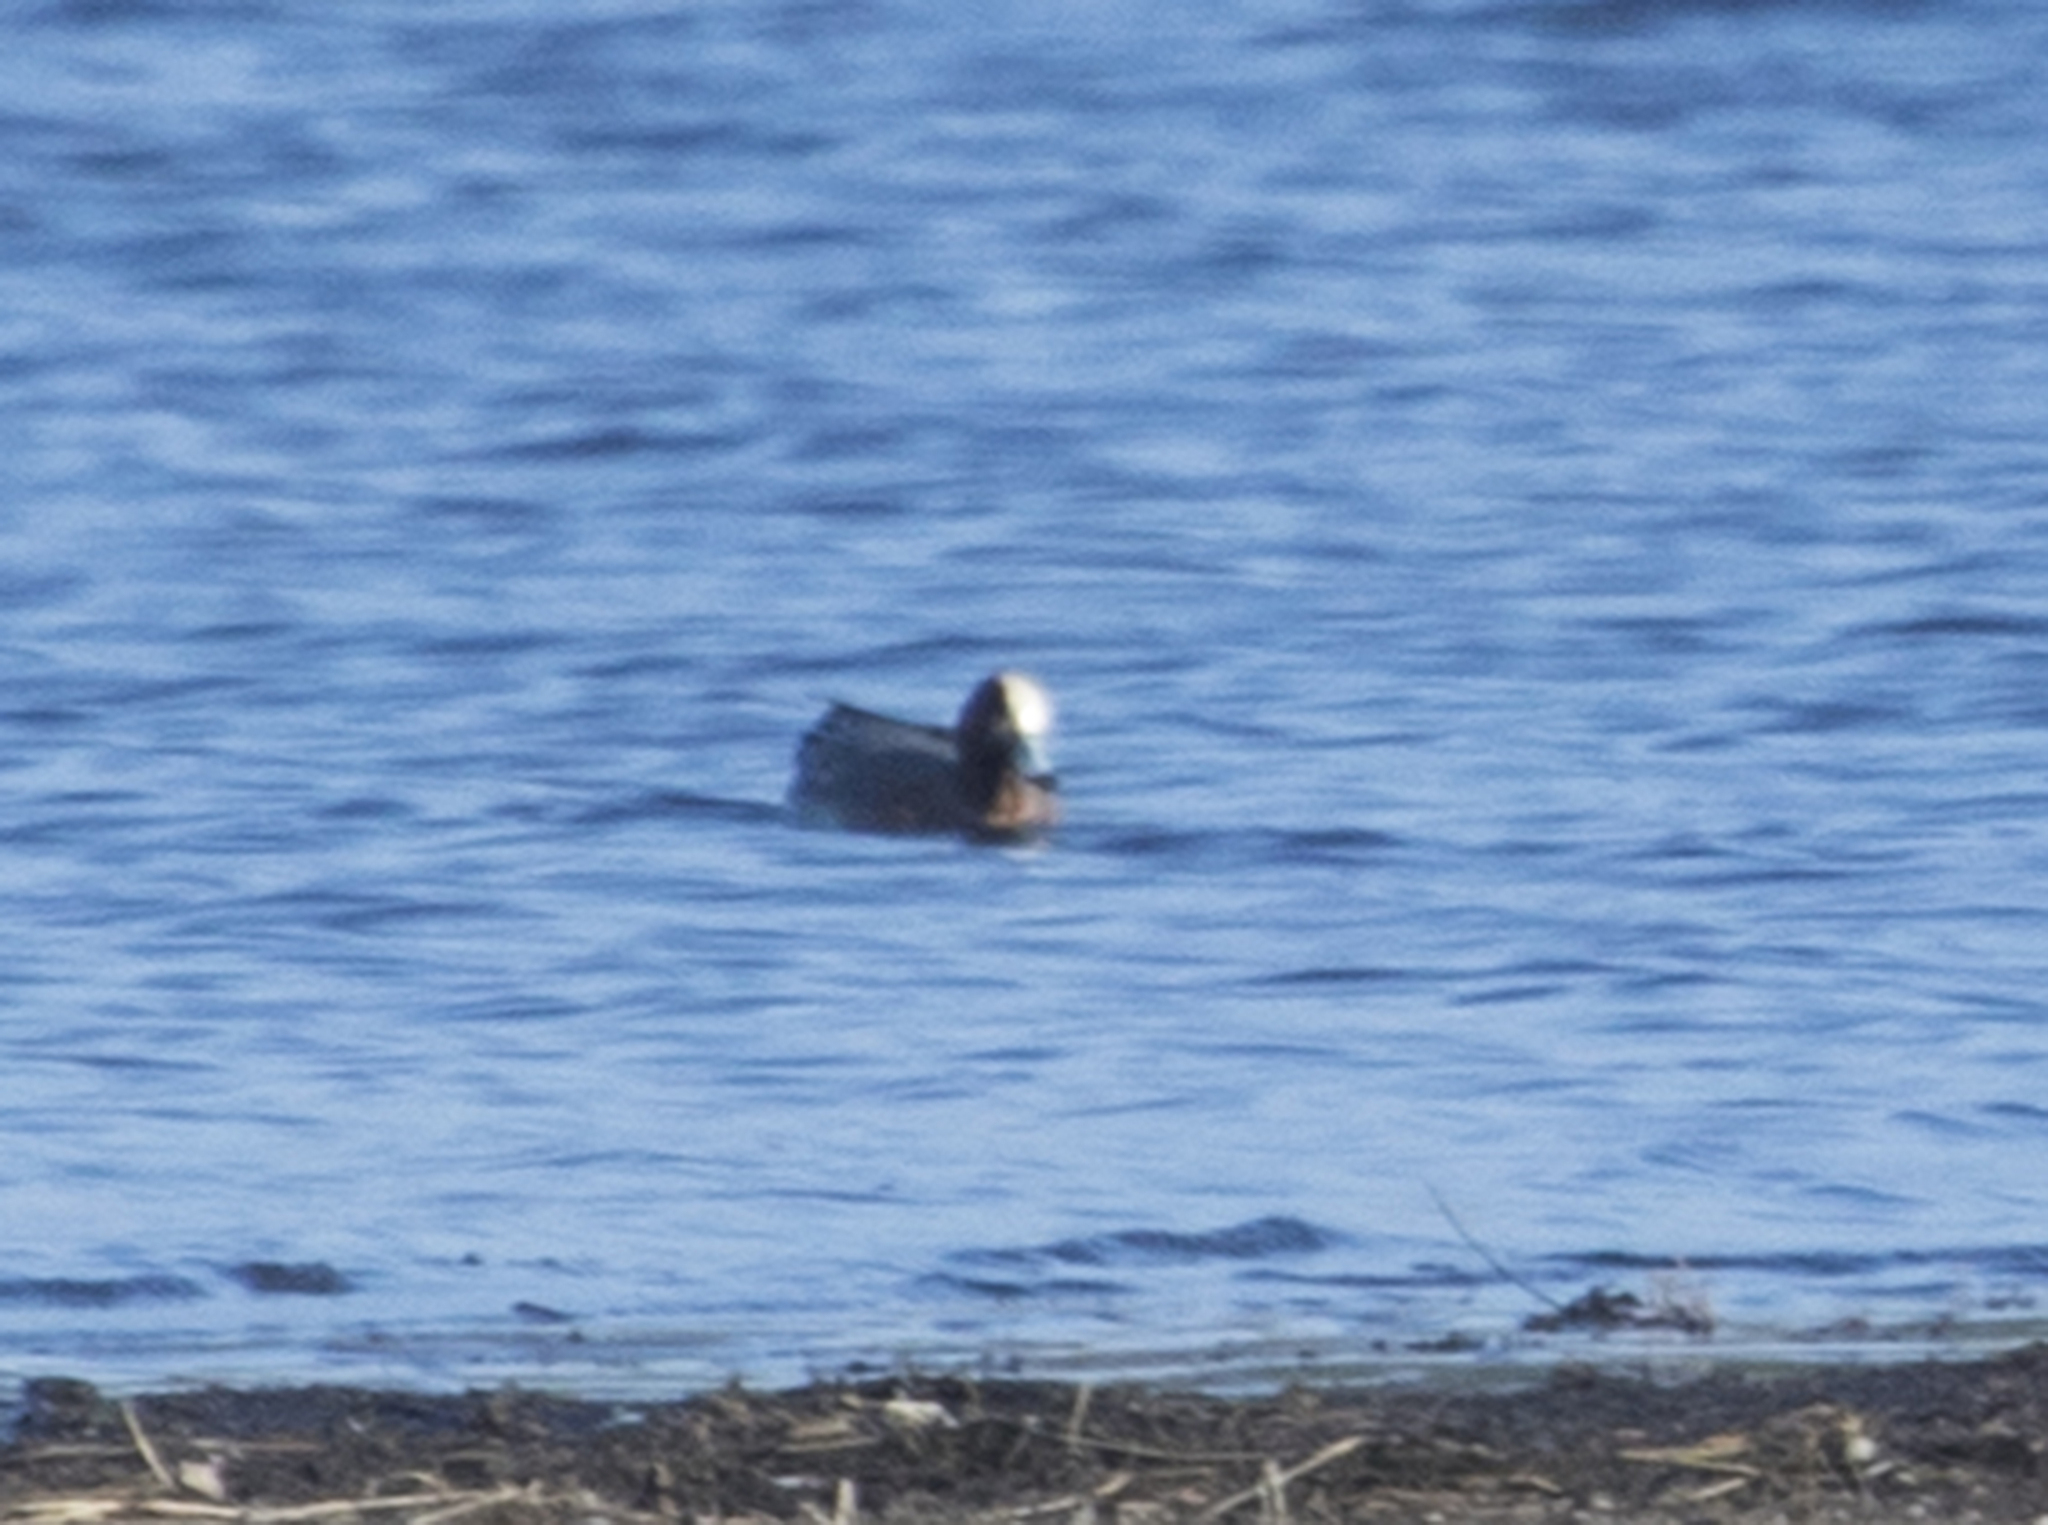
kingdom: Animalia
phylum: Chordata
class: Aves
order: Anseriformes
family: Anatidae
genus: Mareca
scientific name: Mareca penelope
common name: Eurasian wigeon
